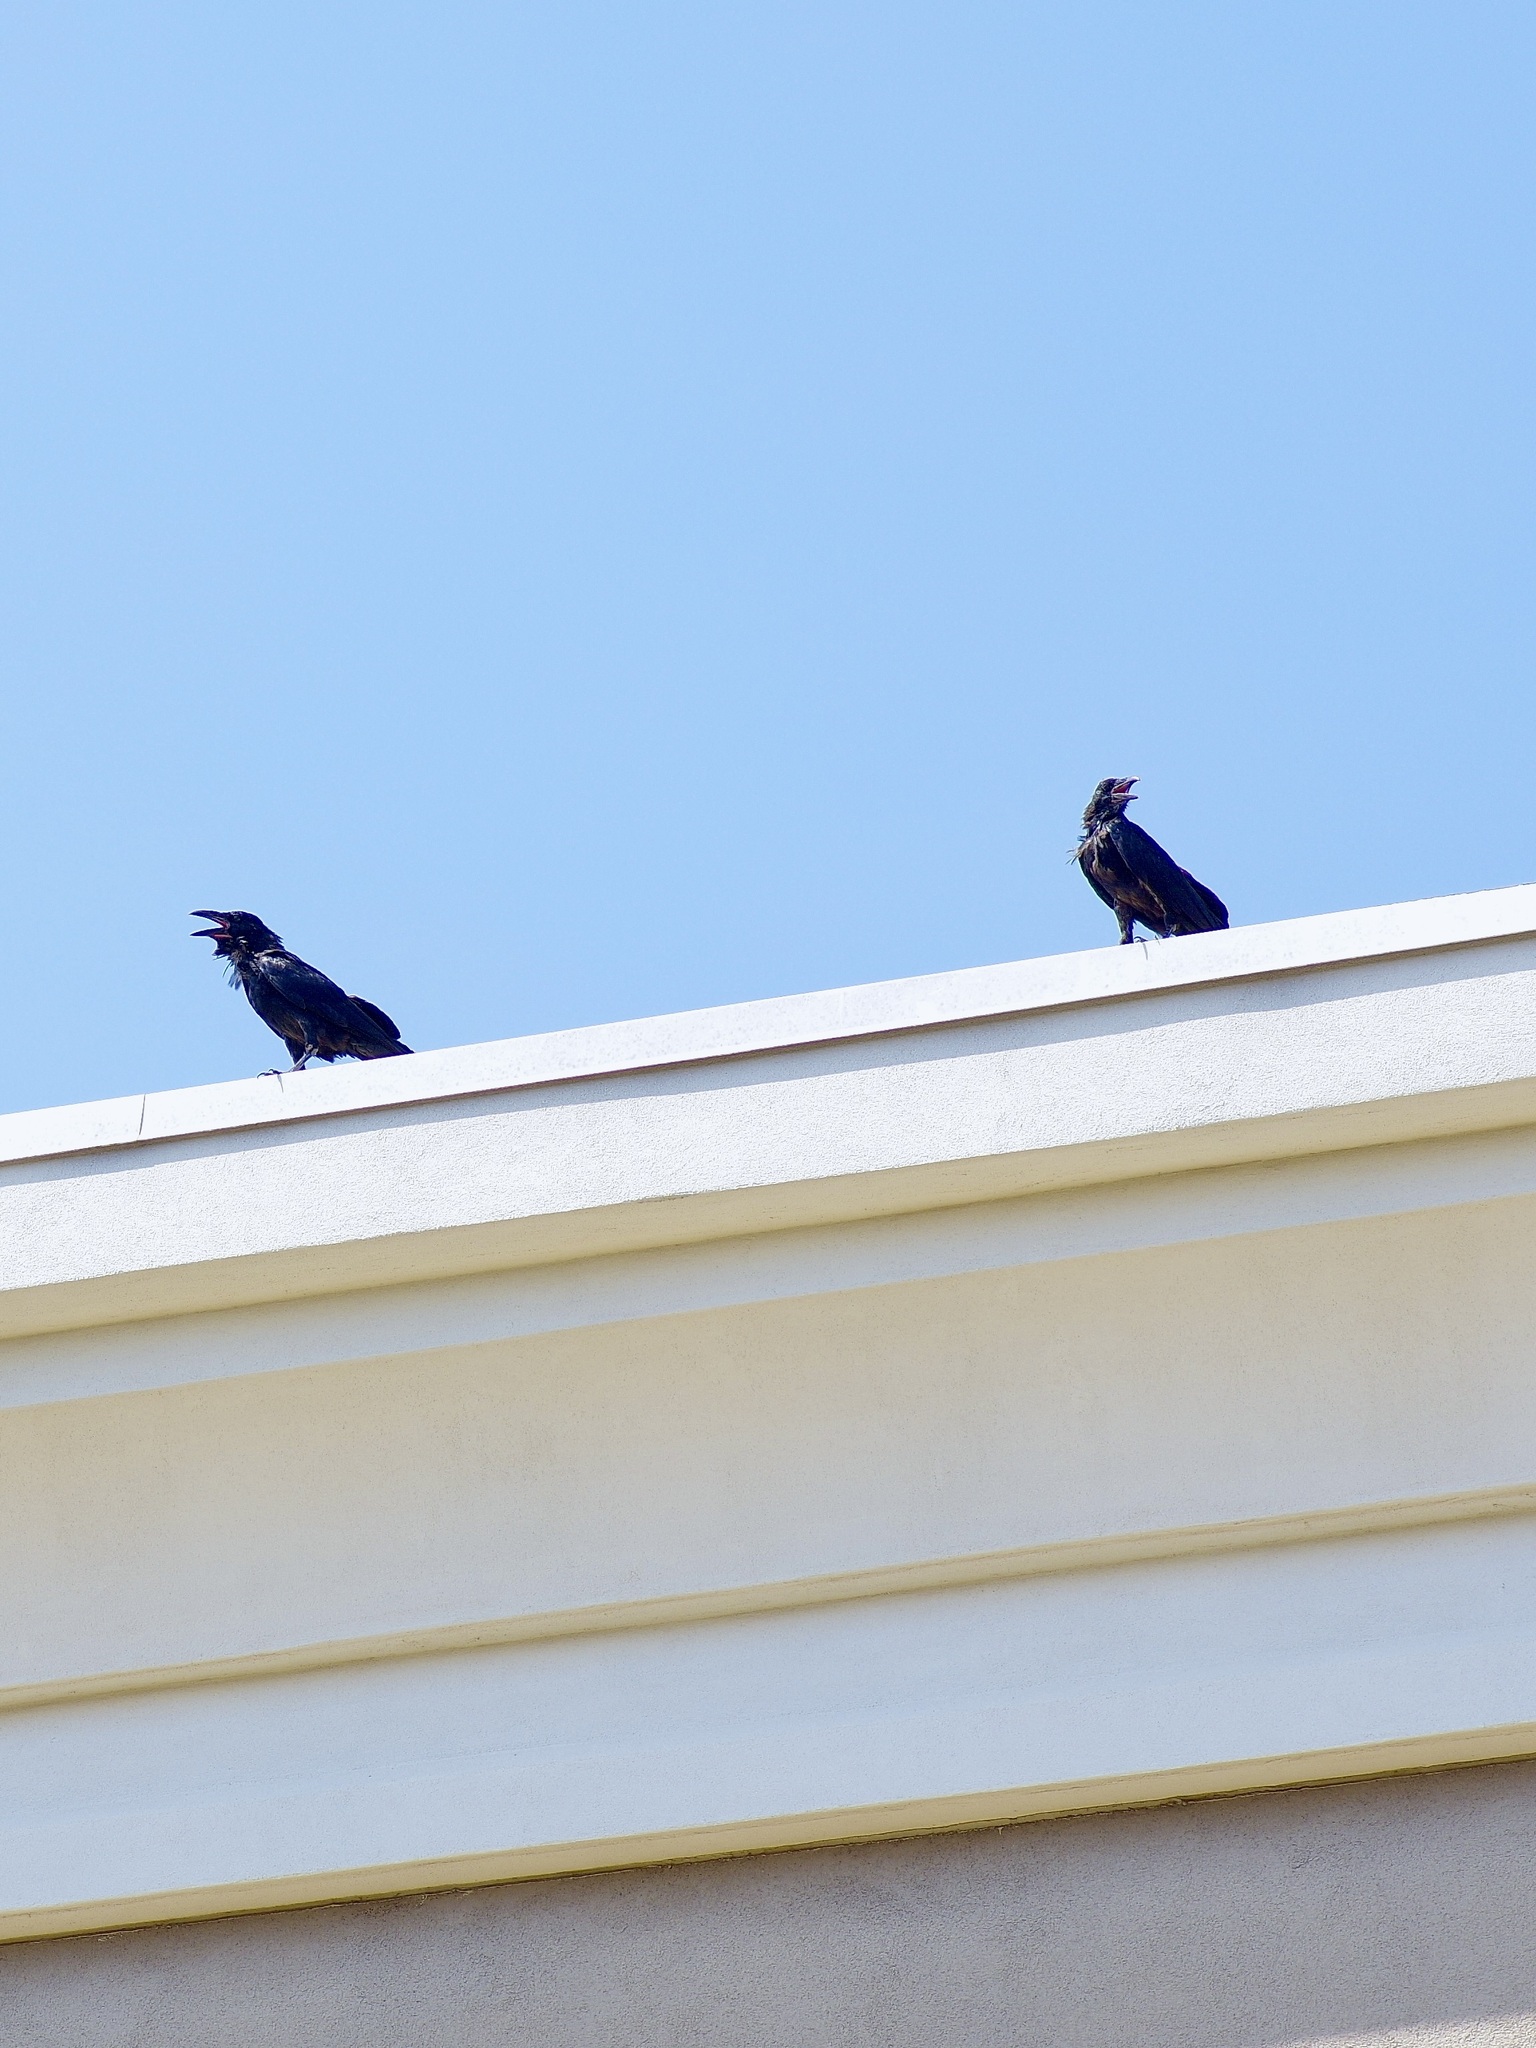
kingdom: Animalia
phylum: Chordata
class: Aves
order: Passeriformes
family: Corvidae
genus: Corvus
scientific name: Corvus corax
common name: Common raven
